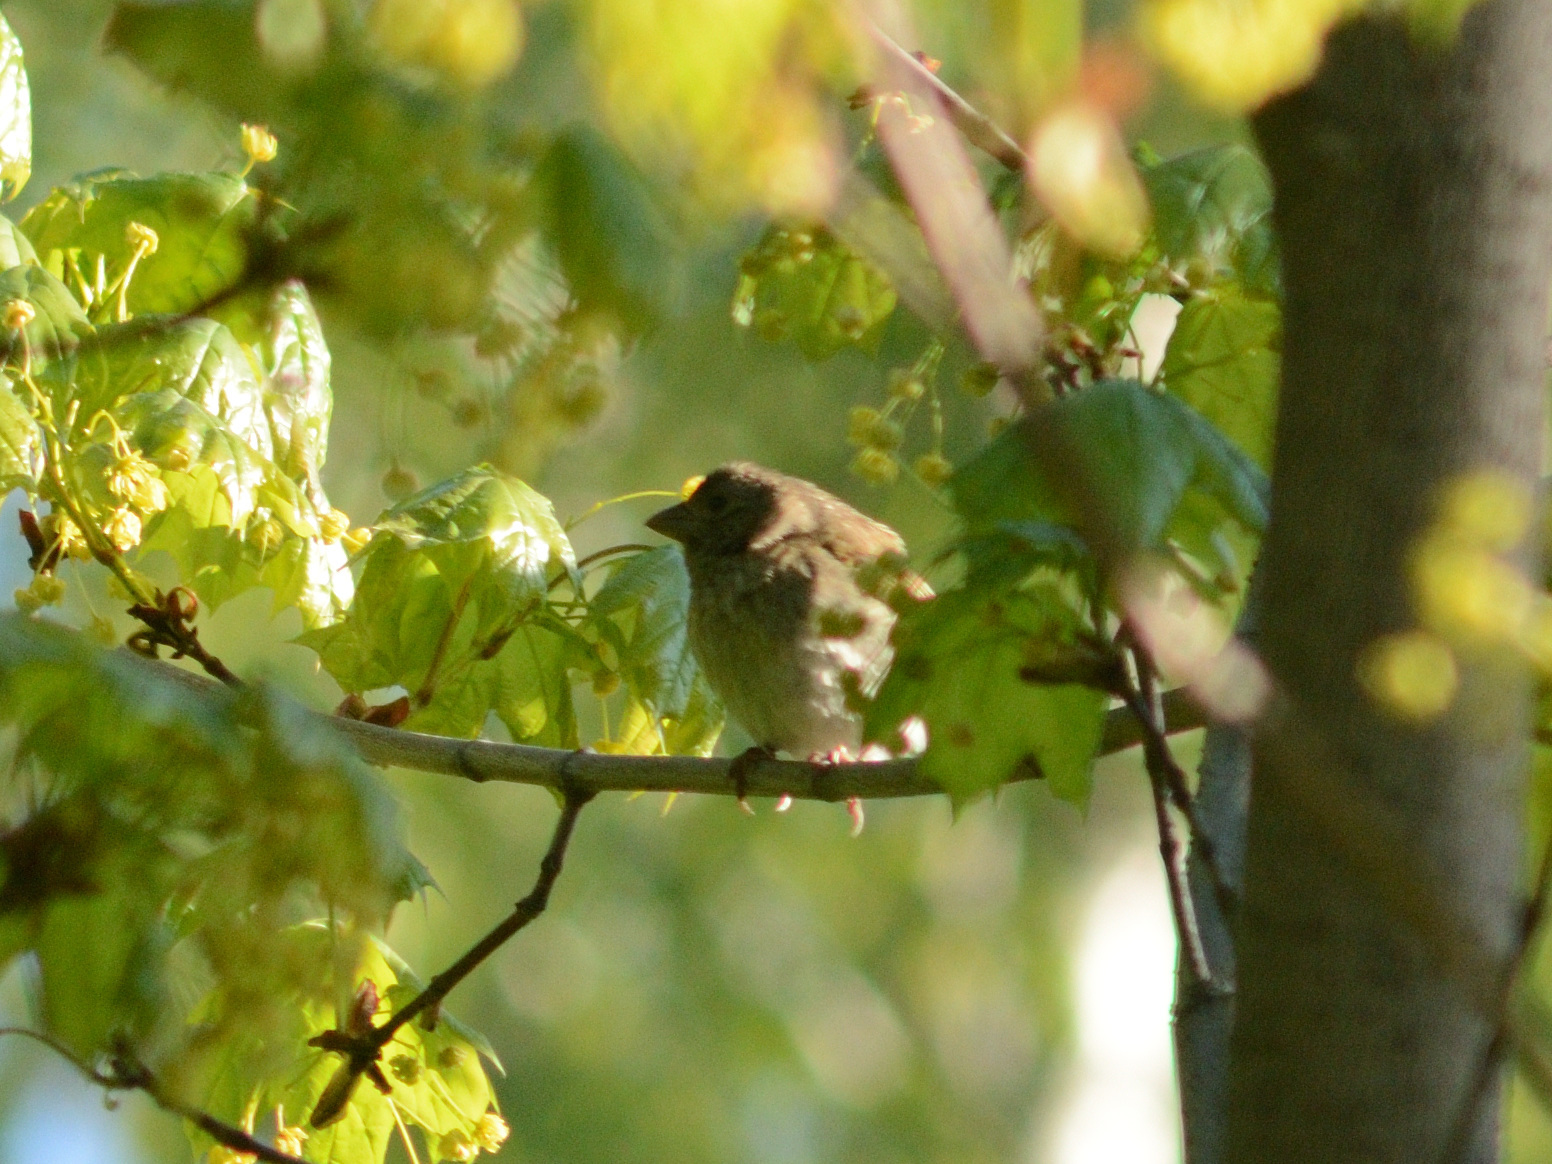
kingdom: Animalia
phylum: Chordata
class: Aves
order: Passeriformes
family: Fringillidae
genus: Carpodacus
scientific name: Carpodacus erythrinus
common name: Common rosefinch
